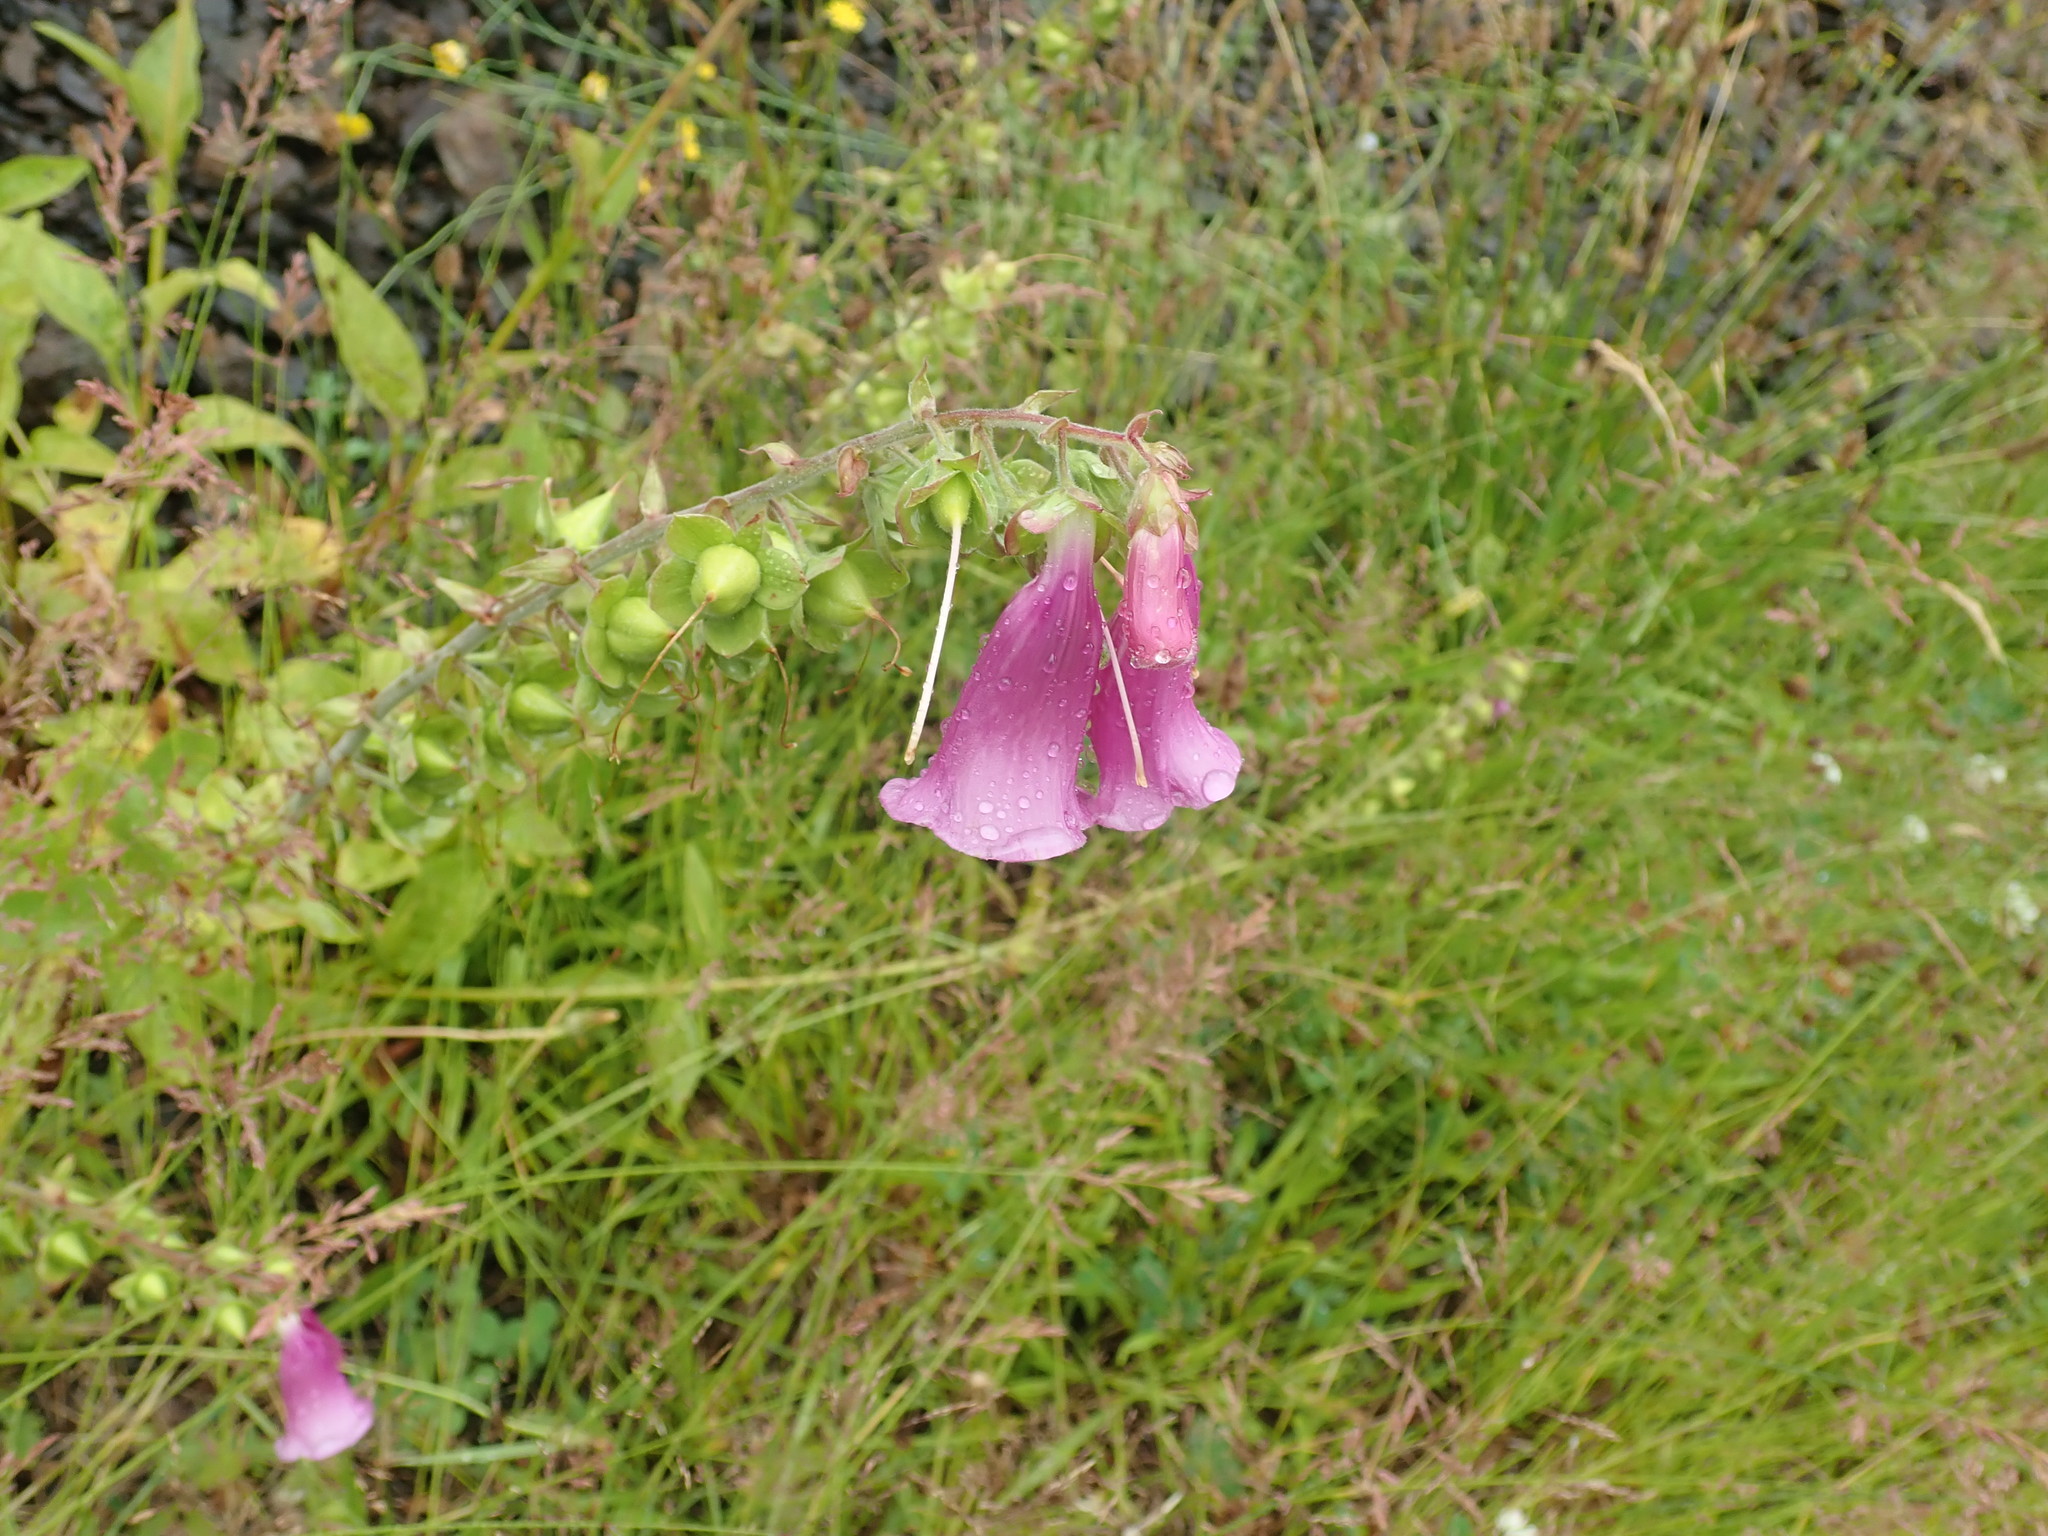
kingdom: Plantae
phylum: Tracheophyta
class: Magnoliopsida
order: Lamiales
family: Plantaginaceae
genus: Digitalis
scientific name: Digitalis purpurea
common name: Foxglove
